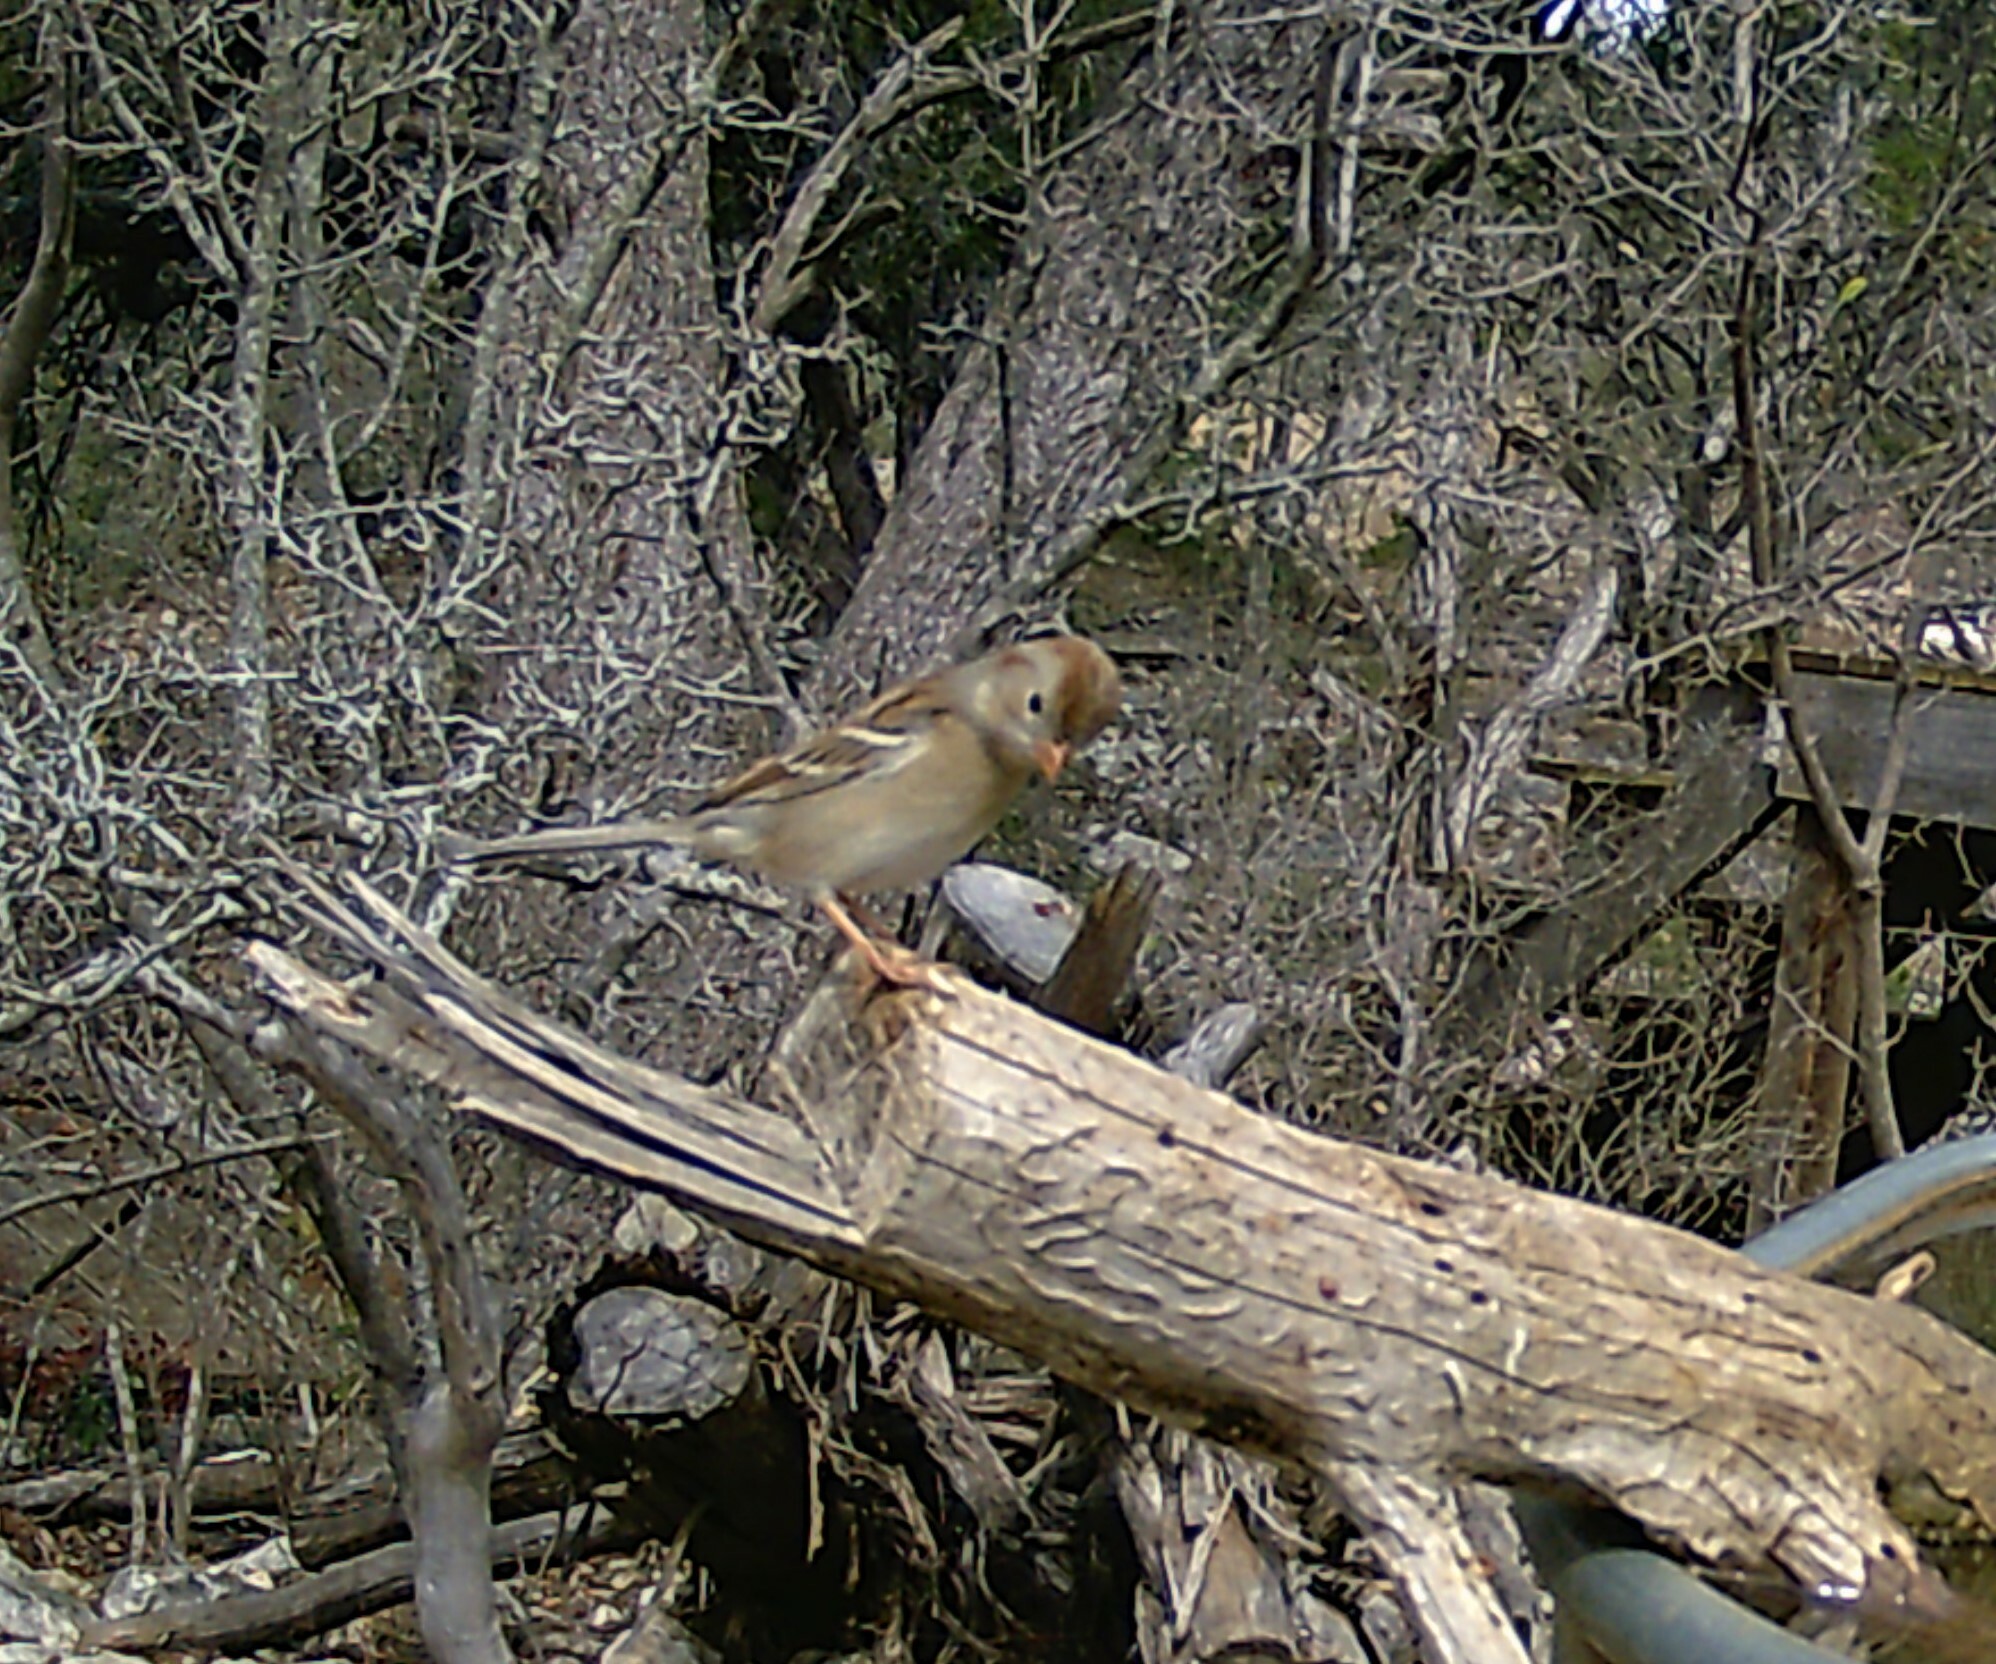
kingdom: Animalia
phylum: Chordata
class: Aves
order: Passeriformes
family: Passerellidae
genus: Spizella
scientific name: Spizella pusilla
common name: Field sparrow
